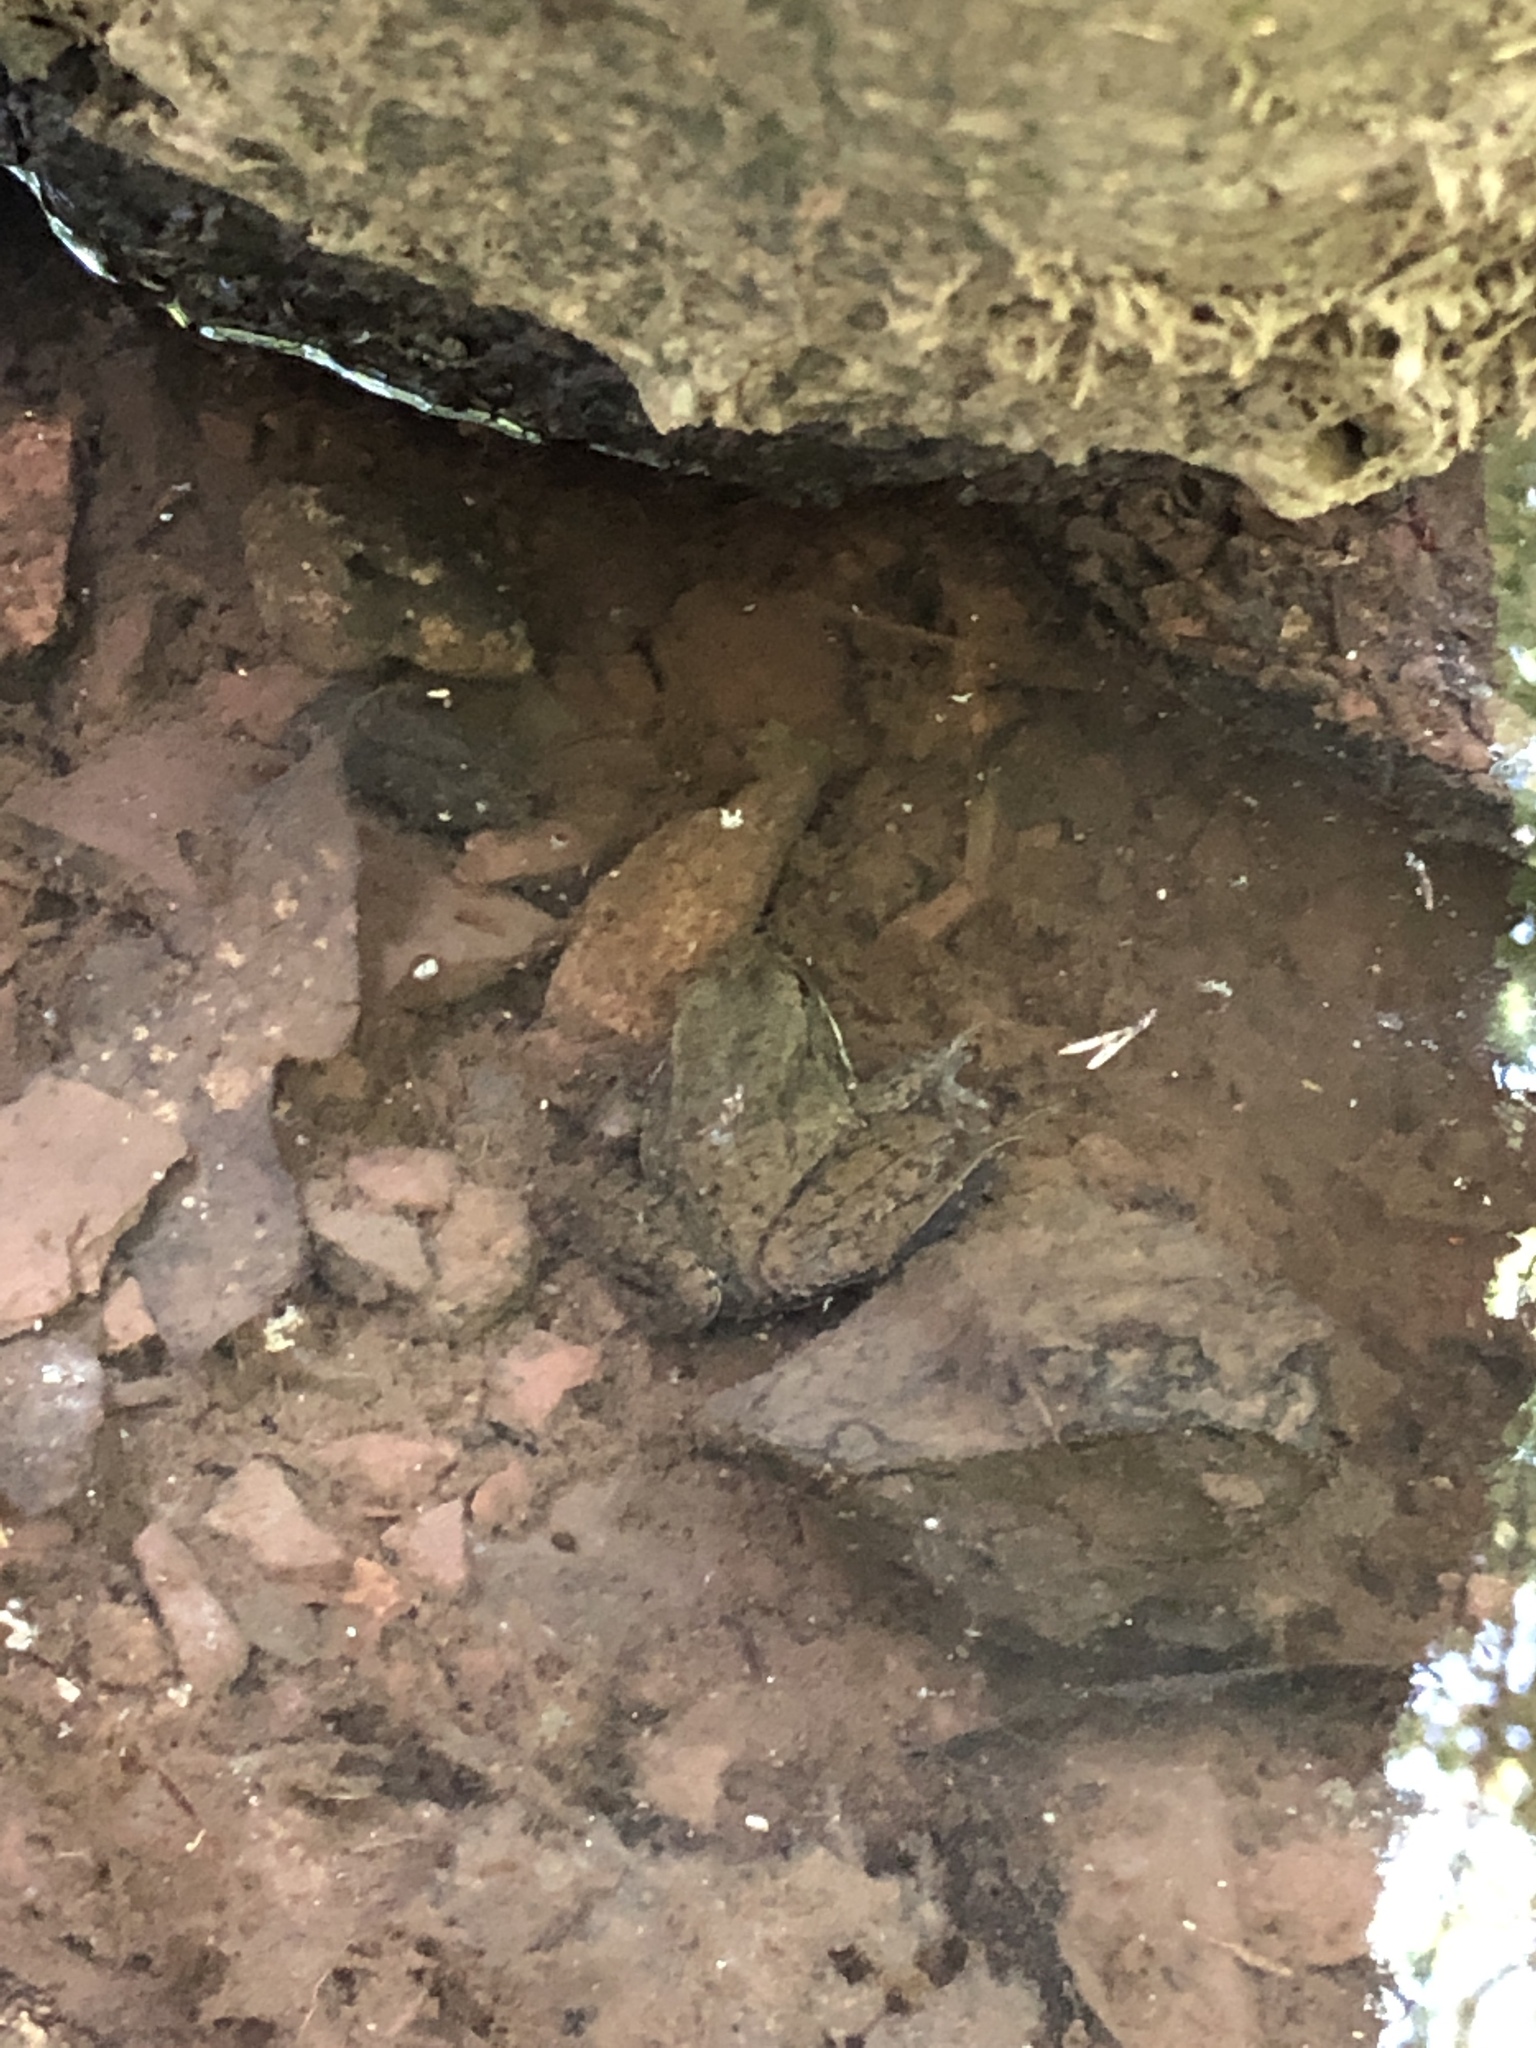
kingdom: Animalia
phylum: Chordata
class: Amphibia
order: Anura
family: Ranidae
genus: Lithobates
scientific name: Lithobates clamitans
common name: Green frog
